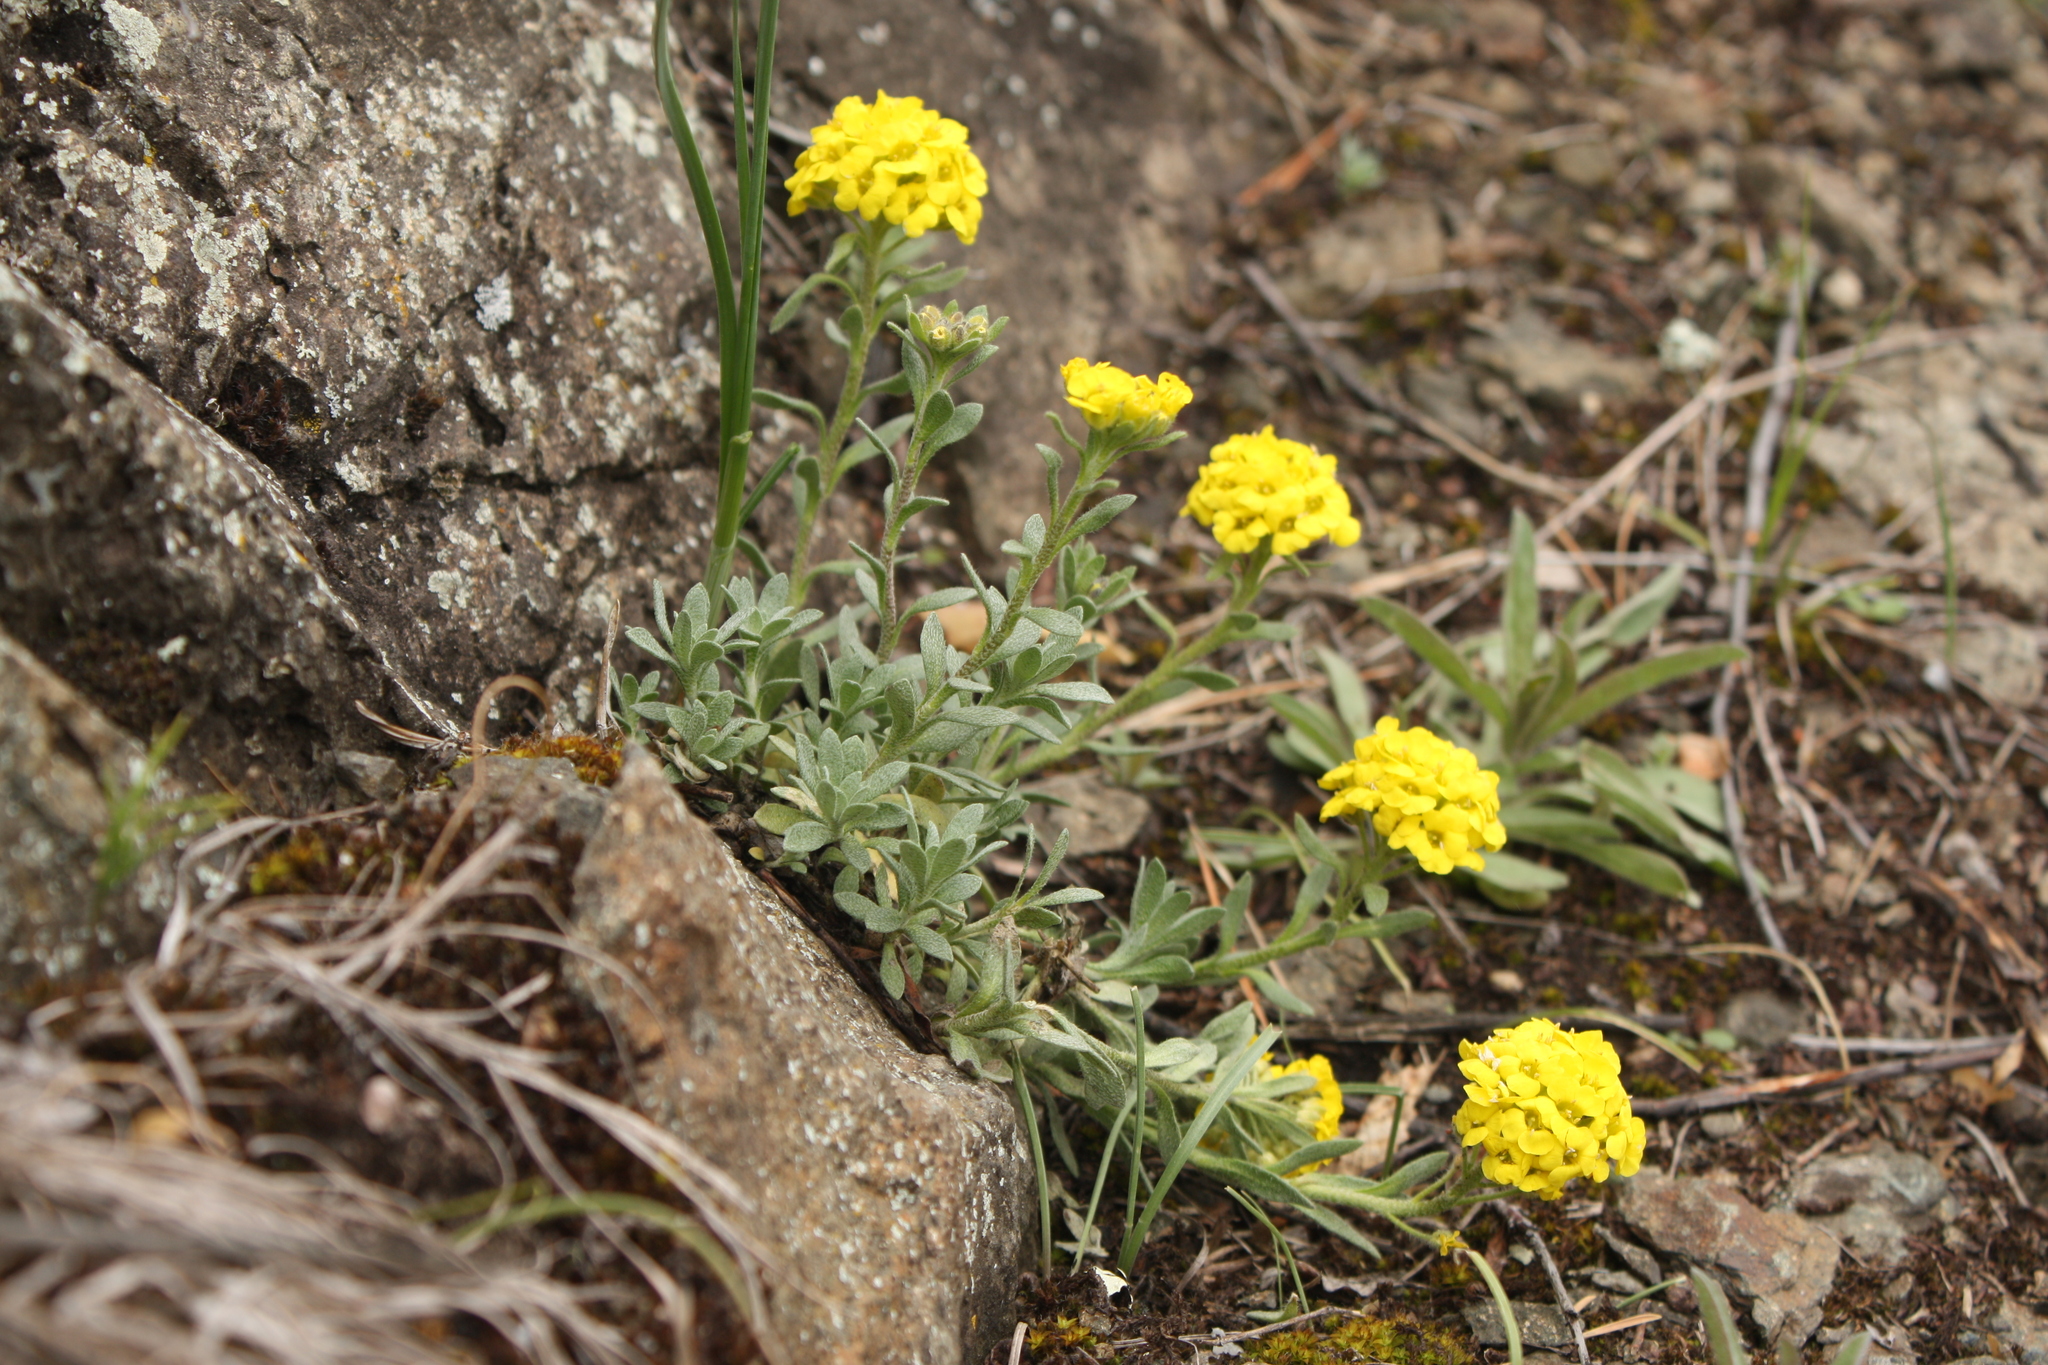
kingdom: Plantae
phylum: Tracheophyta
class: Magnoliopsida
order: Brassicales
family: Brassicaceae
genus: Alyssum
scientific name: Alyssum lenense
